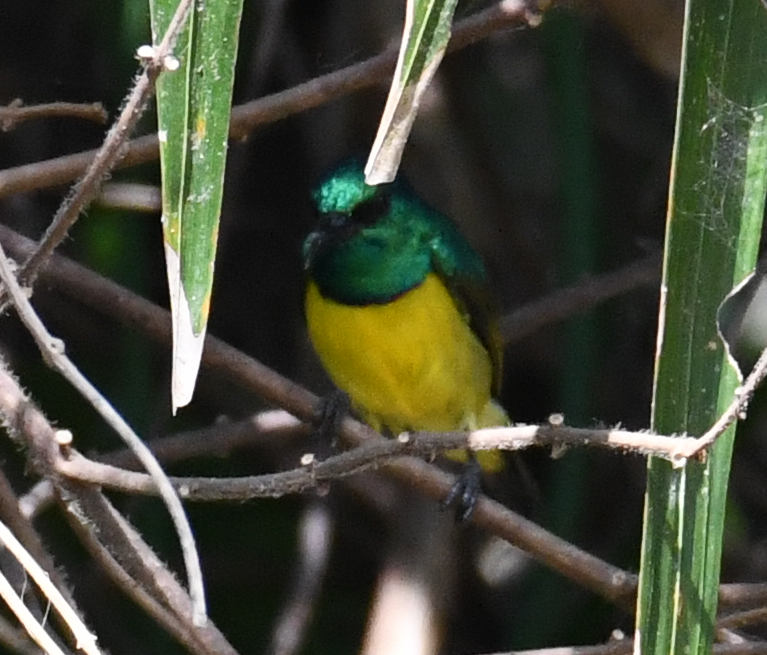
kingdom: Animalia
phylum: Chordata
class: Aves
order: Passeriformes
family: Nectariniidae
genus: Hedydipna
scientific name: Hedydipna collaris
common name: Collared sunbird
